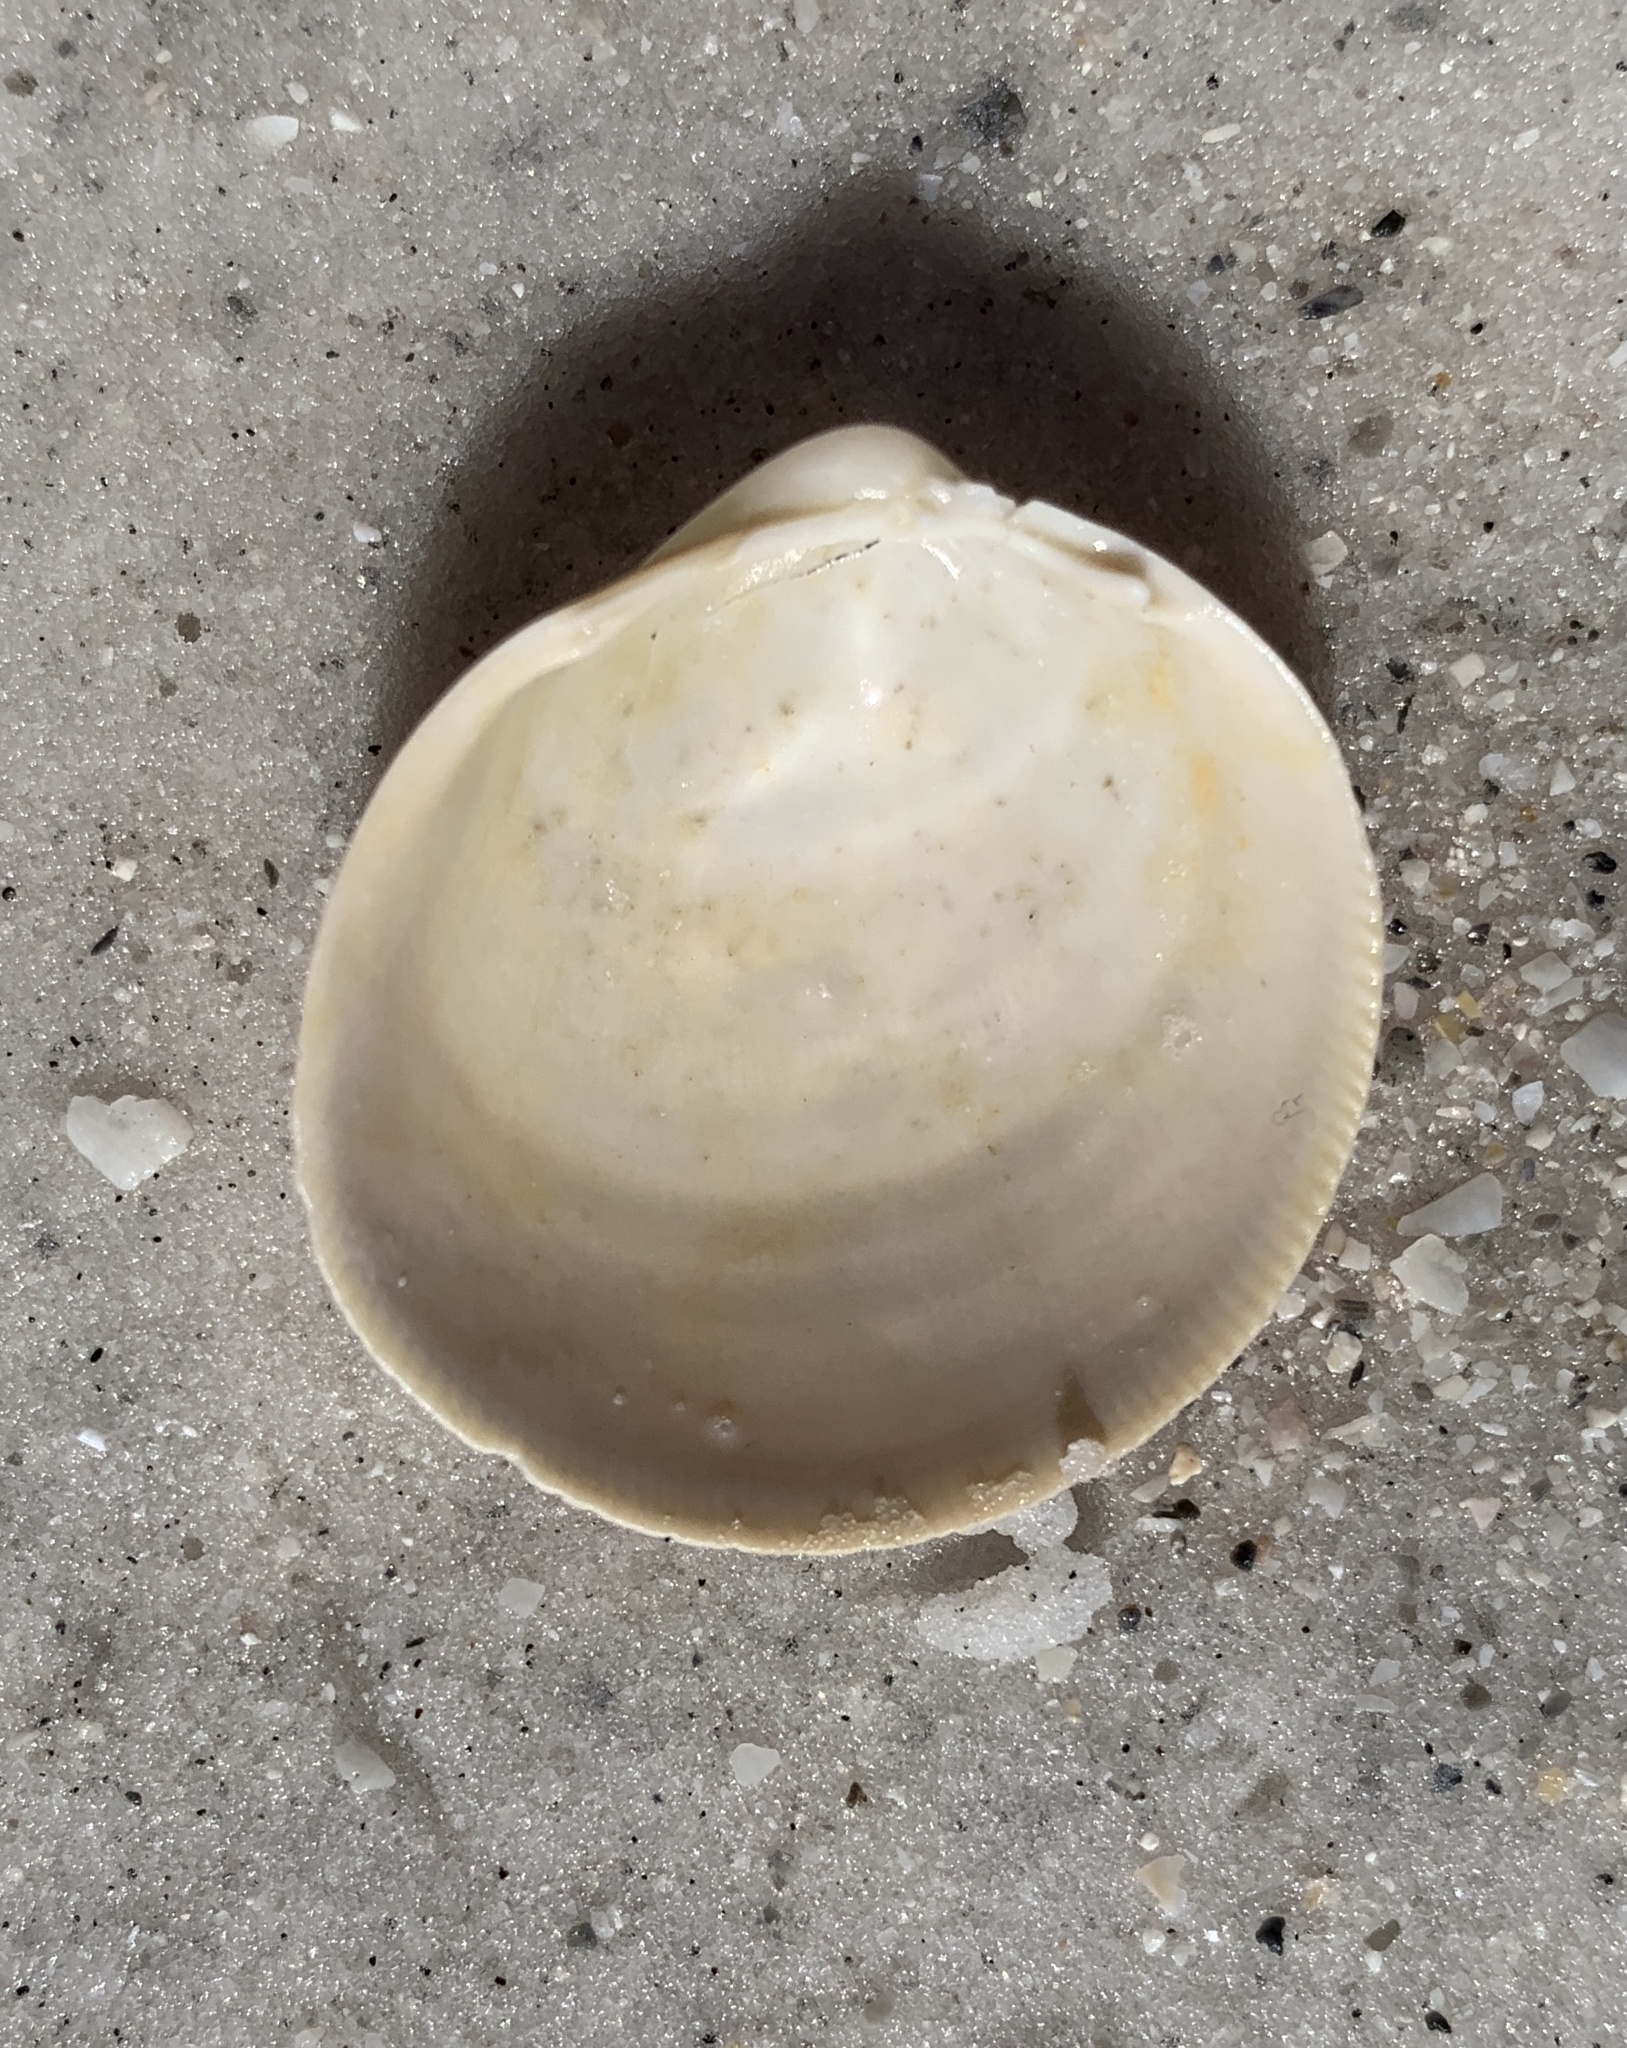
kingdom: Animalia
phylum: Mollusca
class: Bivalvia
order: Cardiida
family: Cardiidae
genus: Laevicardium
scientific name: Laevicardium serratum
